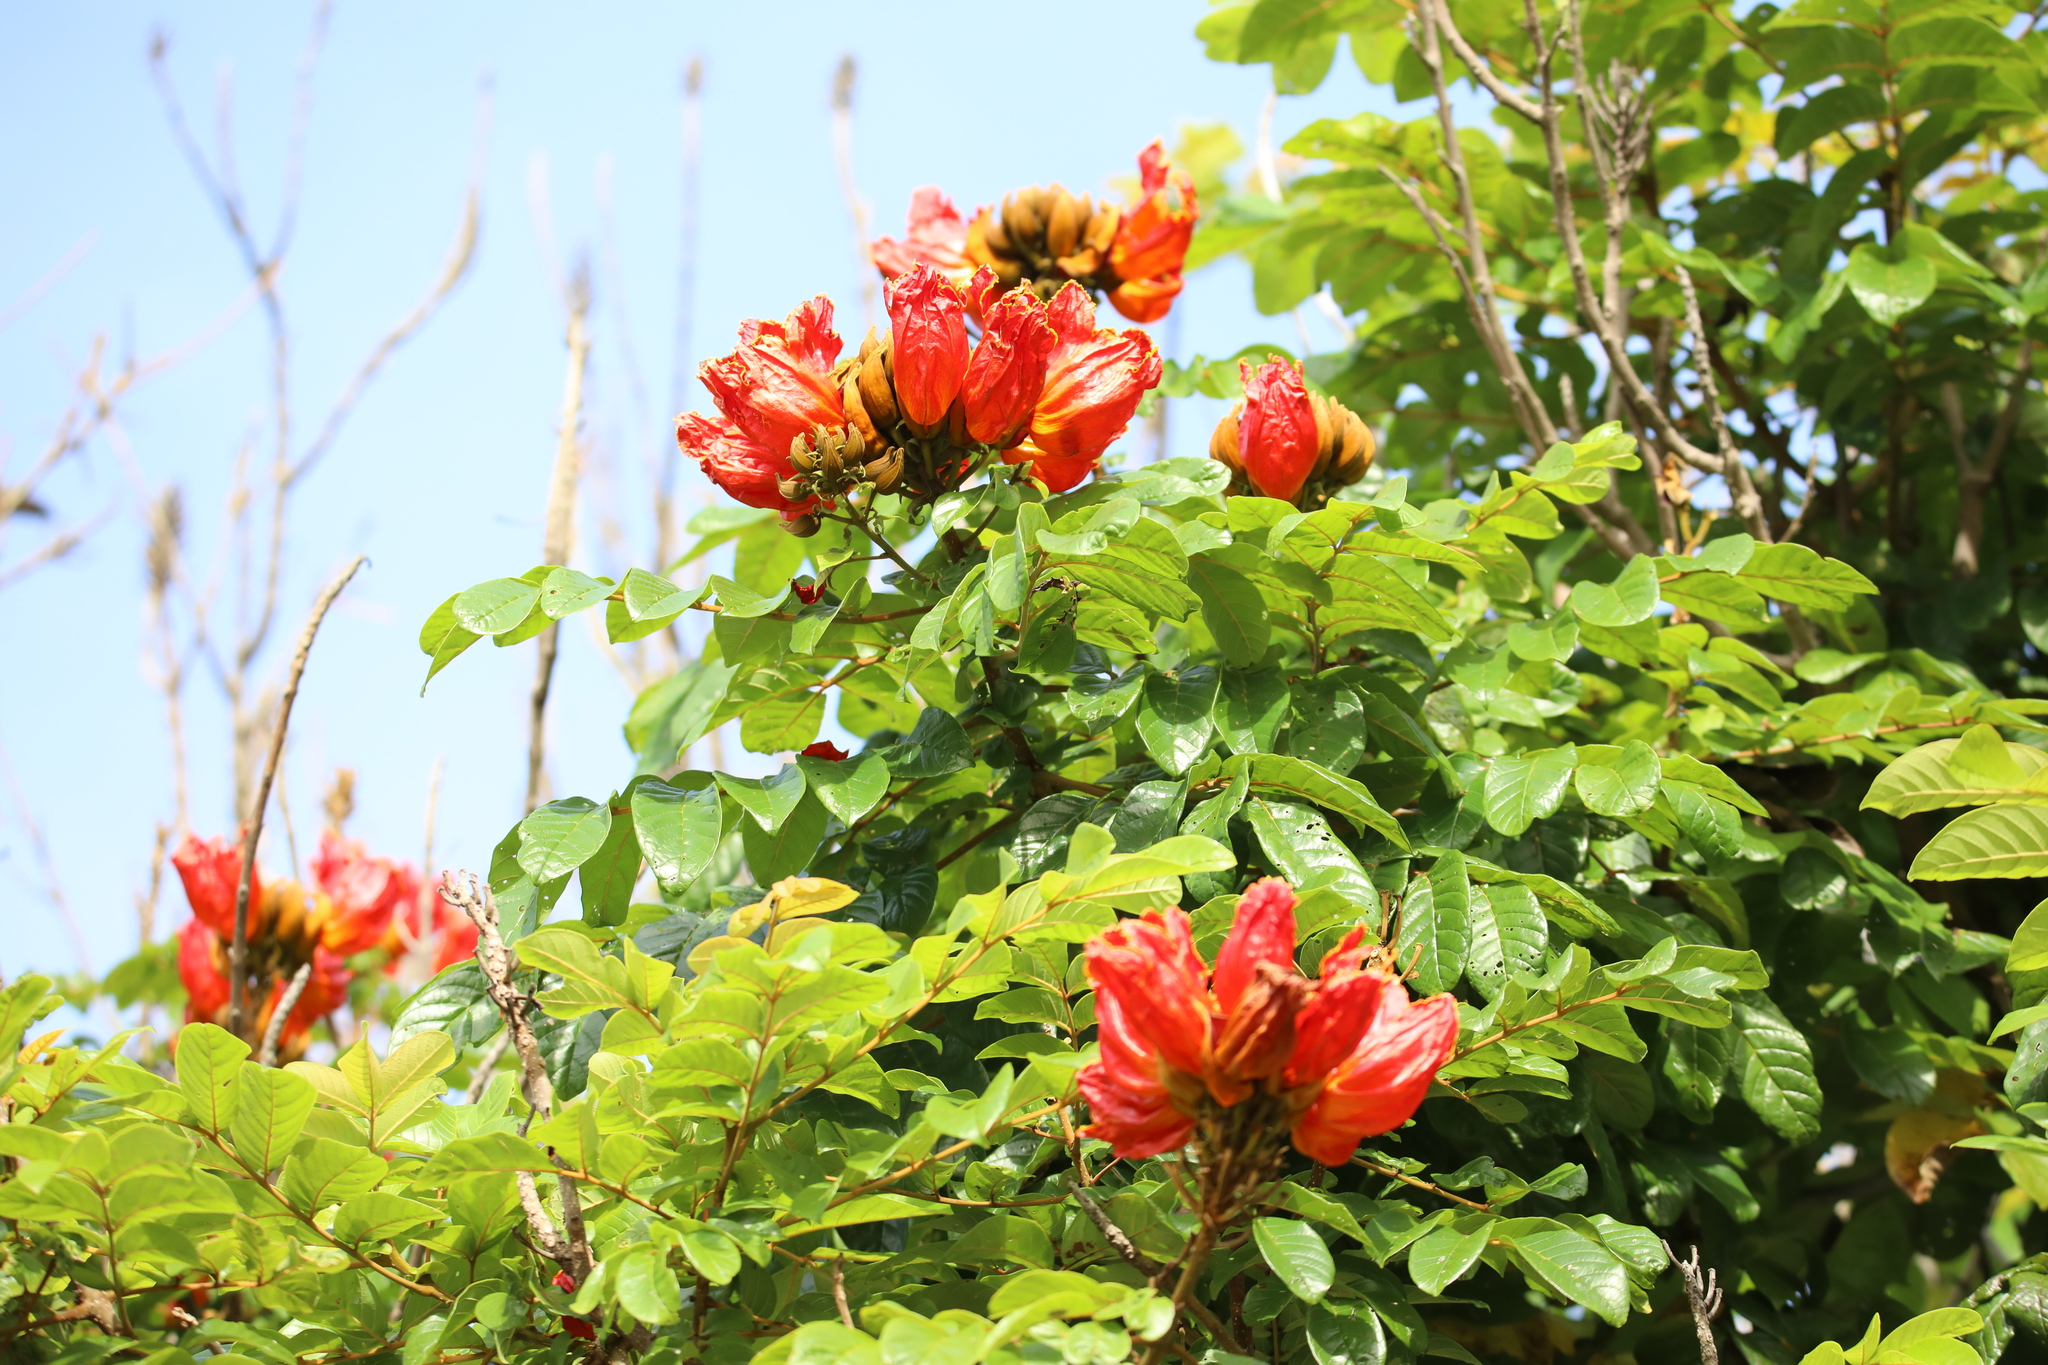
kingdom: Plantae
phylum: Tracheophyta
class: Magnoliopsida
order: Lamiales
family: Bignoniaceae
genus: Spathodea
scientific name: Spathodea campanulata
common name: African tuliptree
